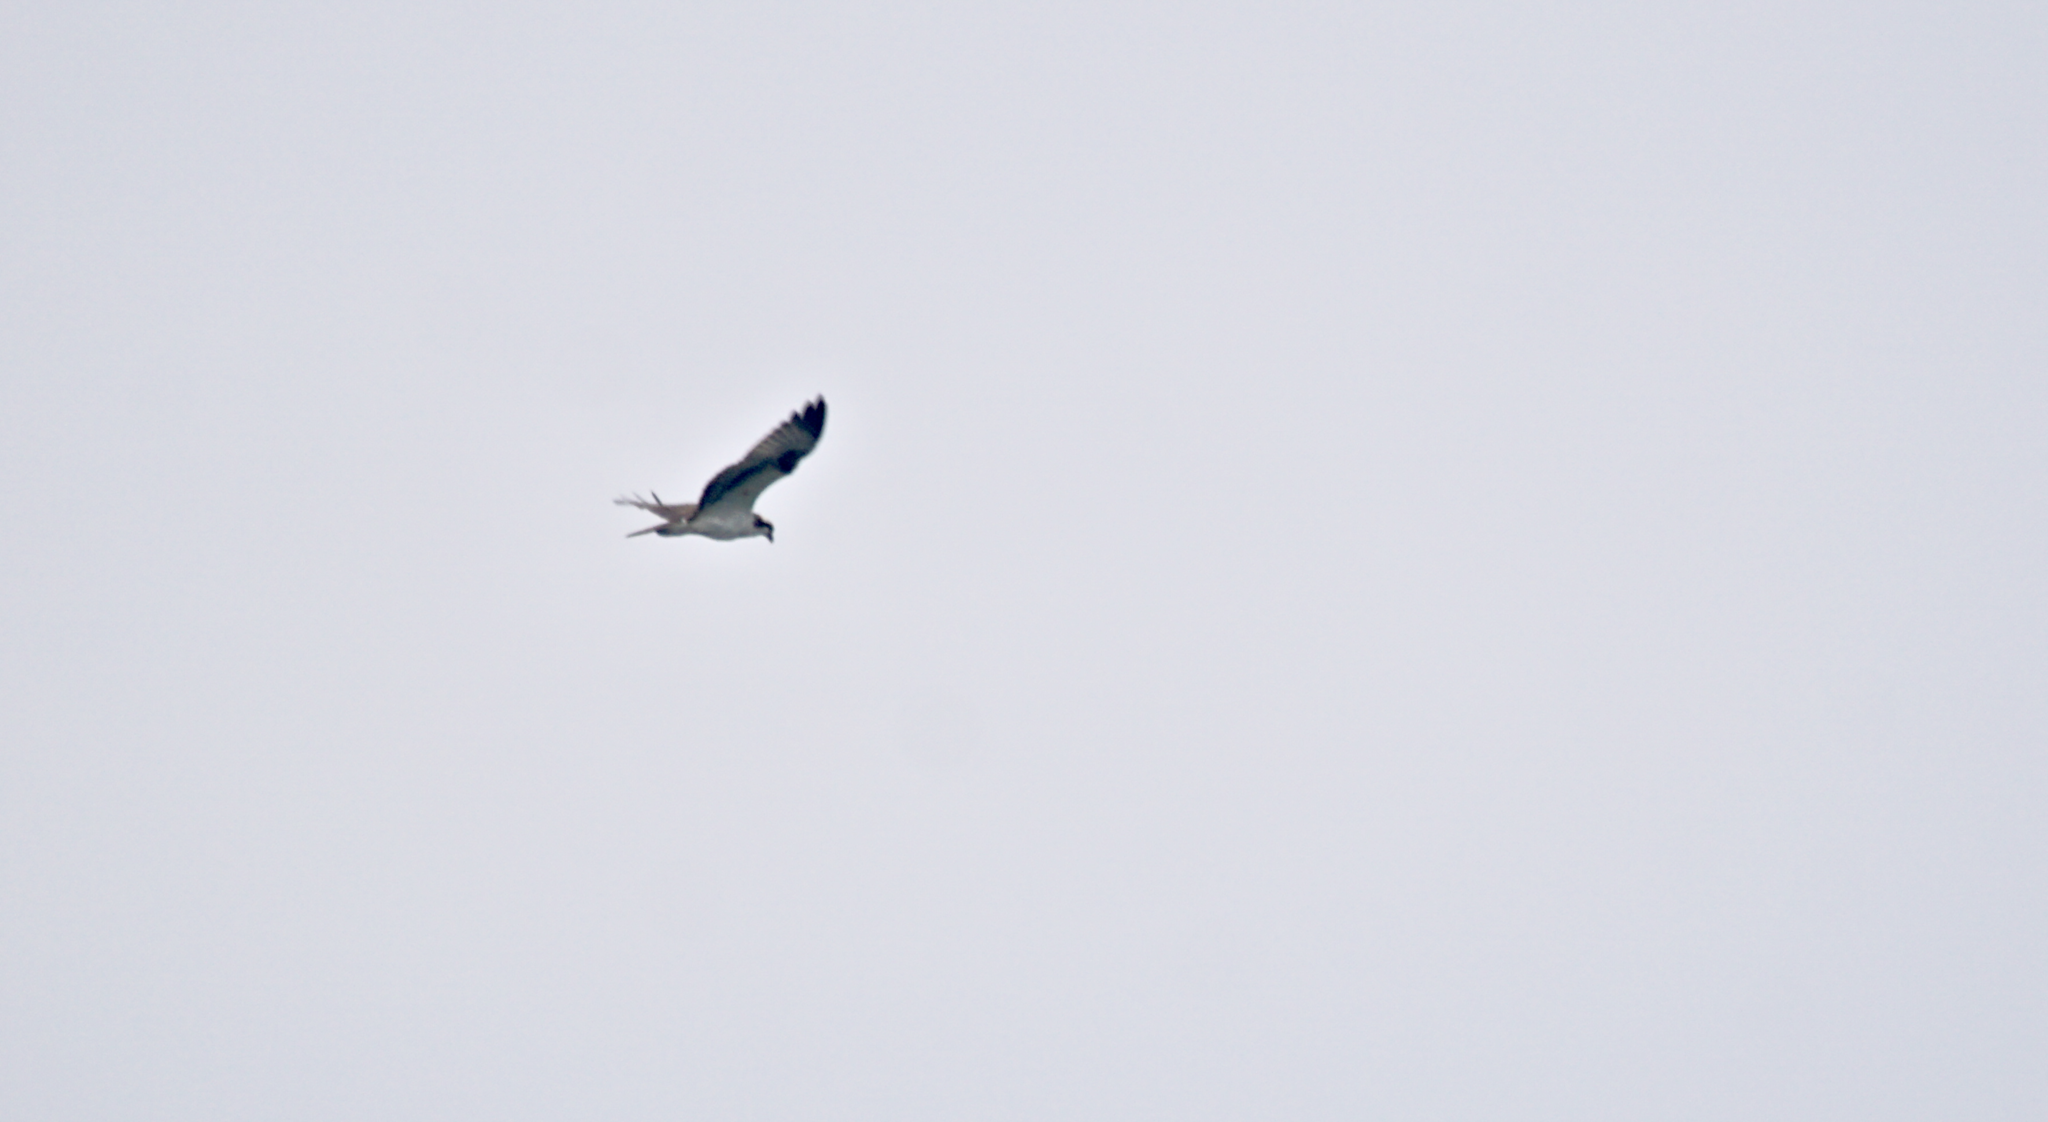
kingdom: Animalia
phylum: Chordata
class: Aves
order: Accipitriformes
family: Pandionidae
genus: Pandion
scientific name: Pandion haliaetus
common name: Osprey
